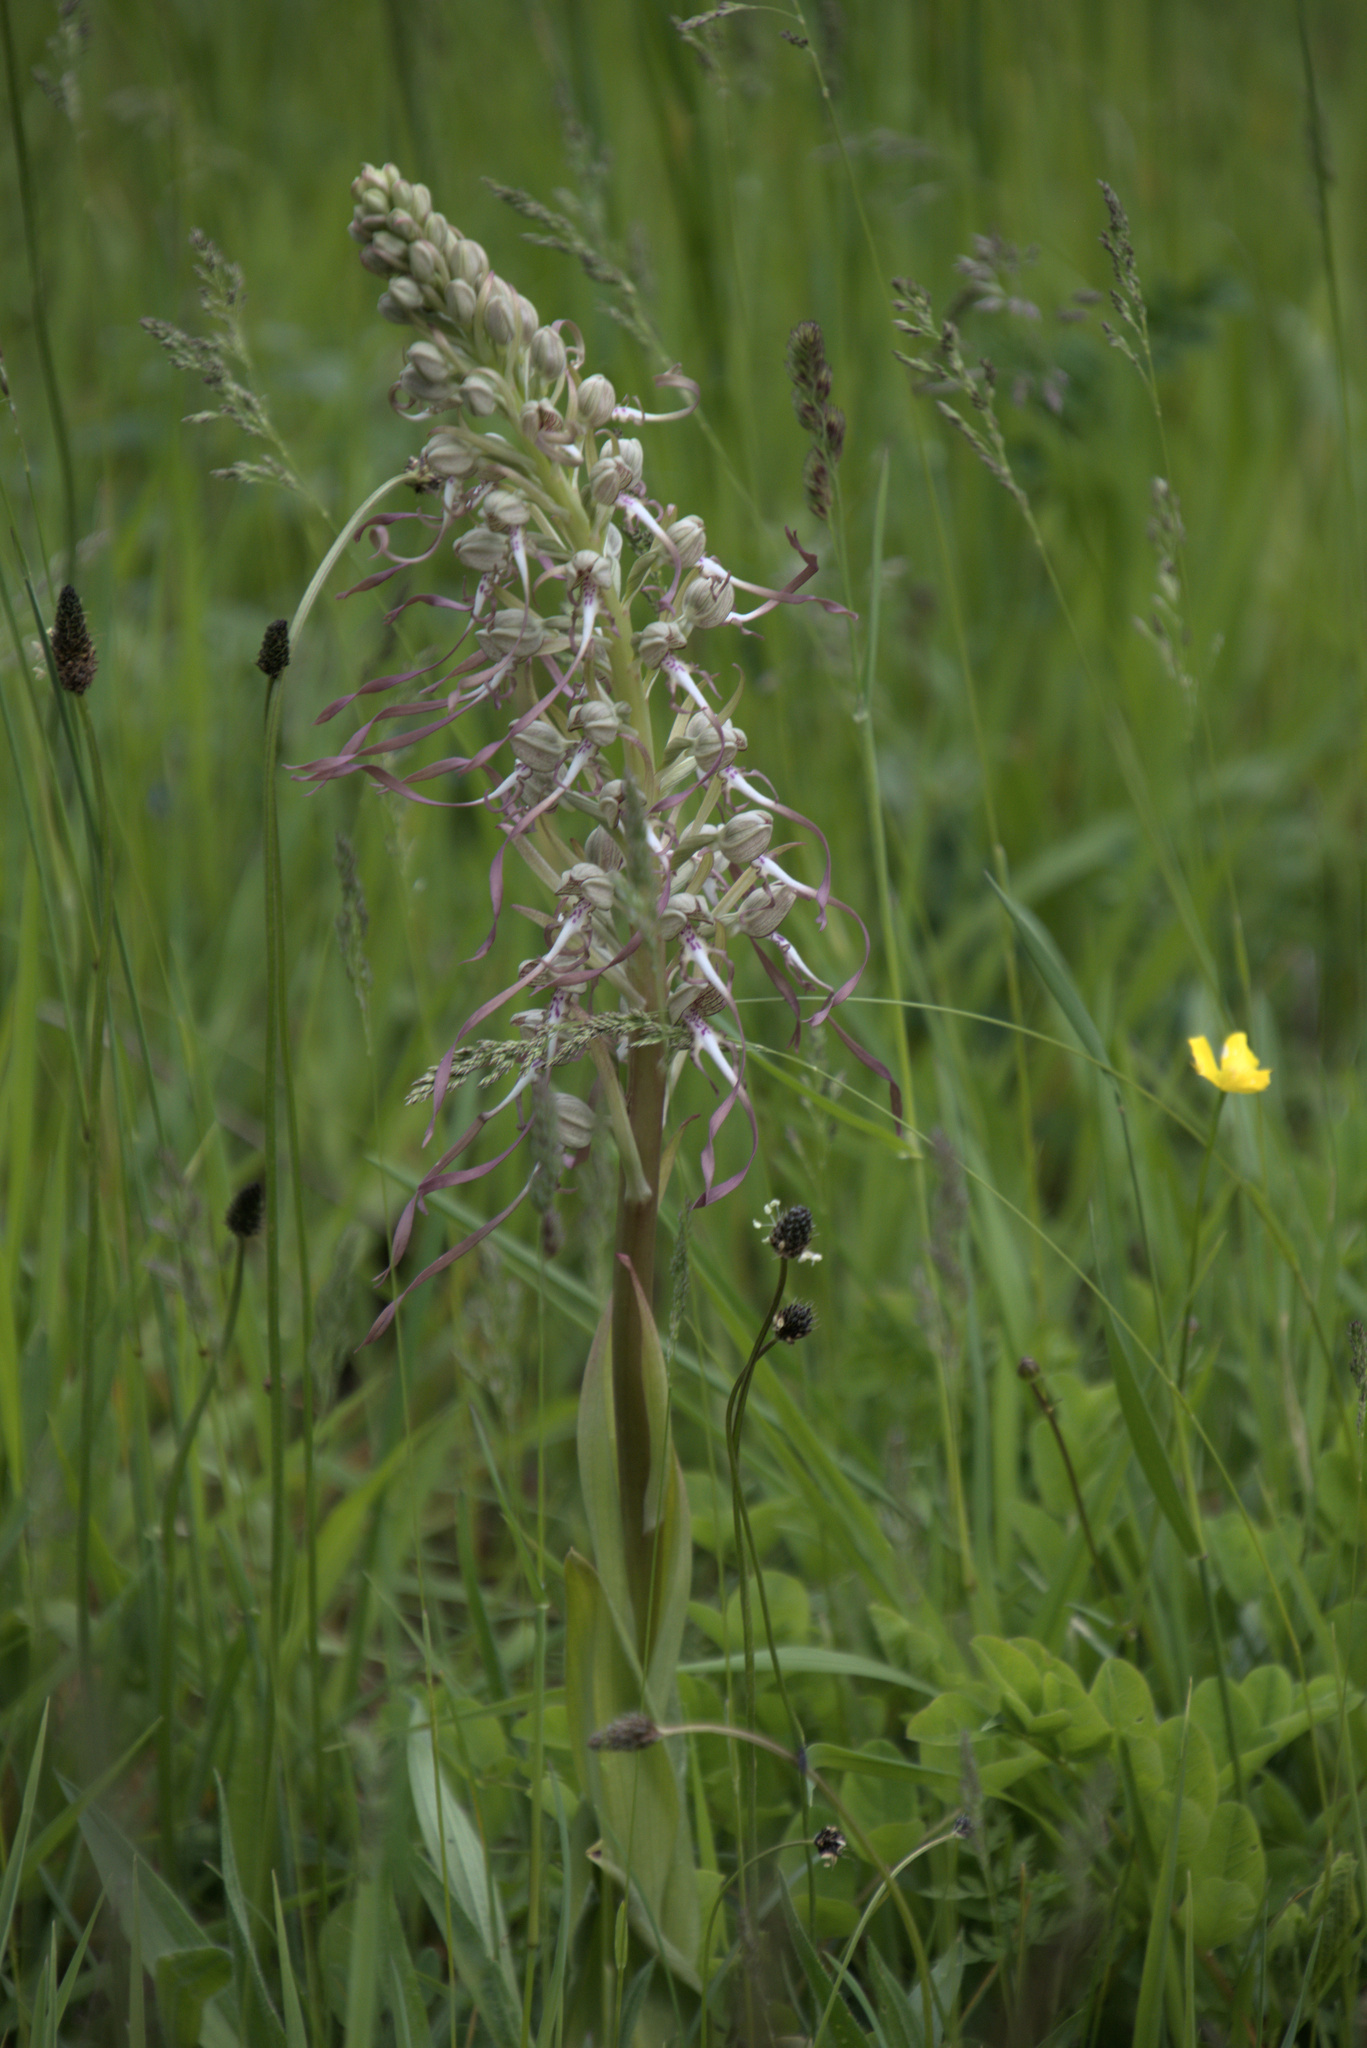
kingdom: Plantae
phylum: Tracheophyta
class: Liliopsida
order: Asparagales
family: Orchidaceae
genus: Himantoglossum
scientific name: Himantoglossum hircinum
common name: Lizard orchid
